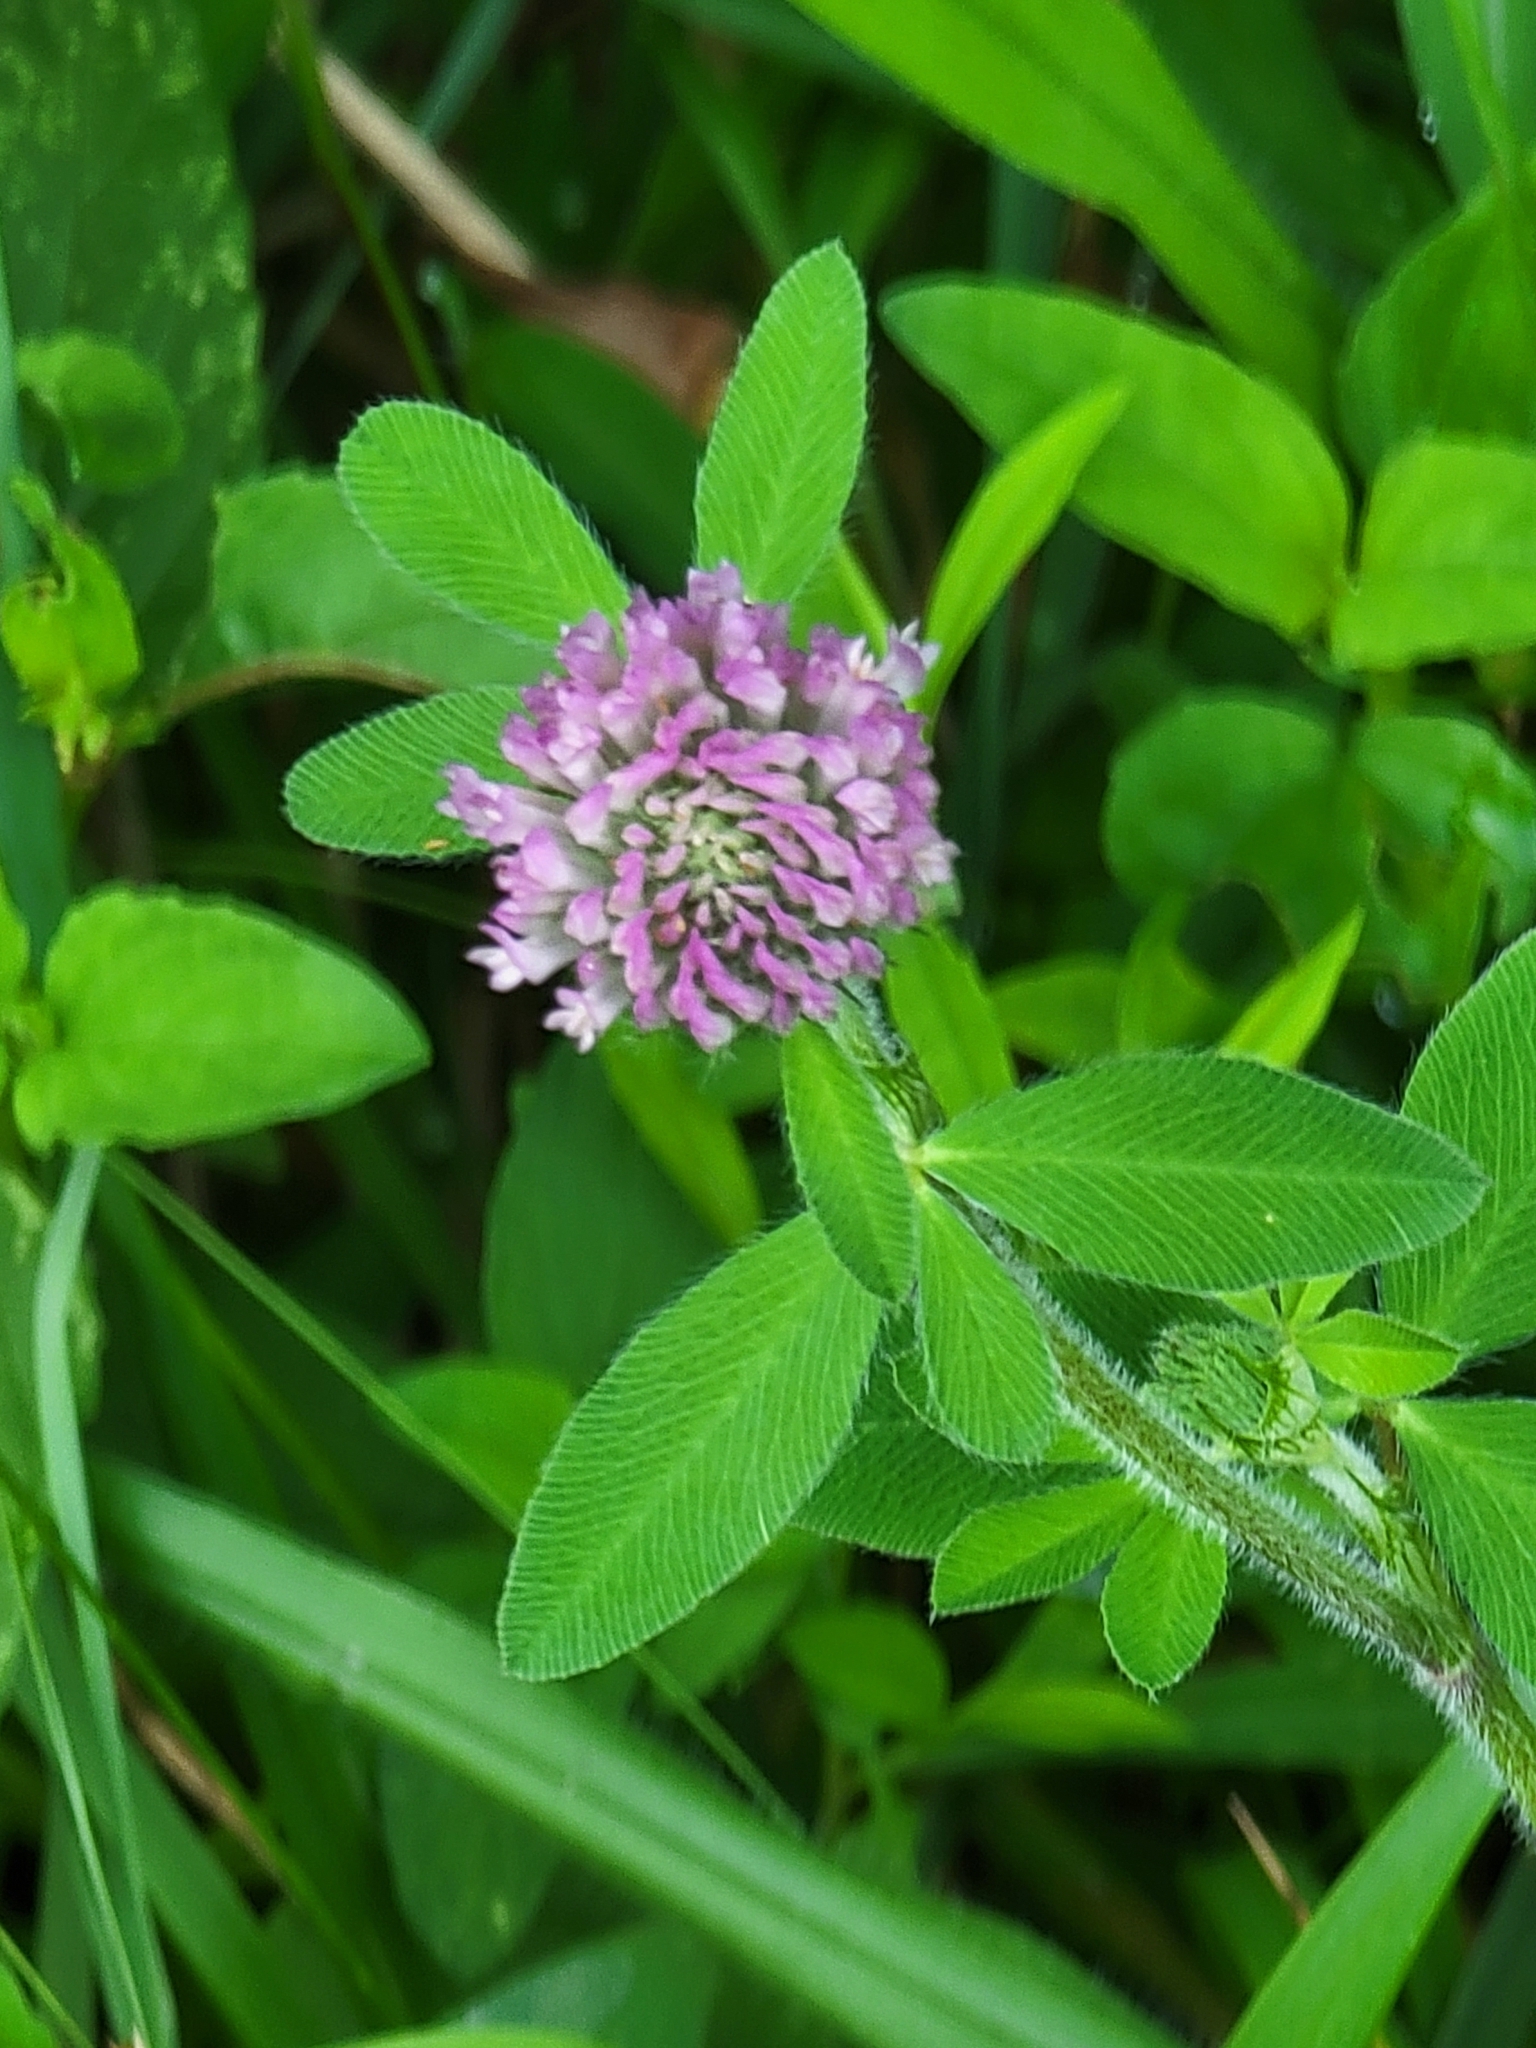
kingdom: Plantae
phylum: Tracheophyta
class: Magnoliopsida
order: Fabales
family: Fabaceae
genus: Trifolium
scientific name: Trifolium pratense
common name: Red clover
